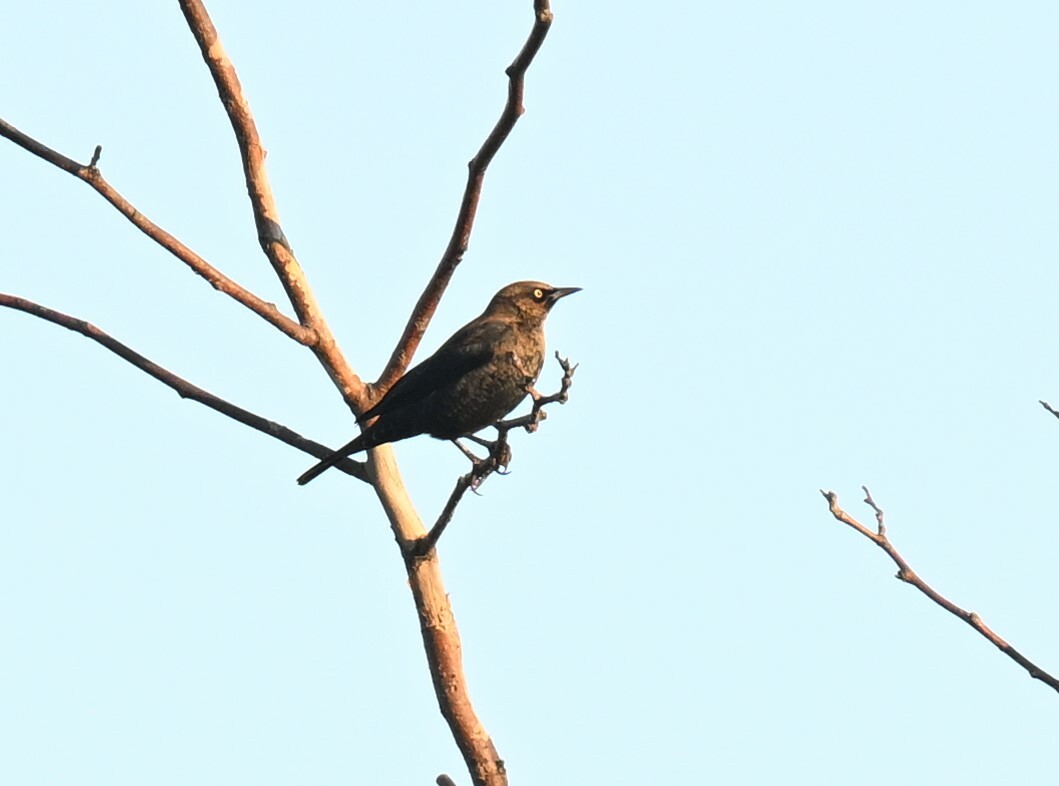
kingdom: Animalia
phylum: Chordata
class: Aves
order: Passeriformes
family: Icteridae
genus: Euphagus
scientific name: Euphagus carolinus
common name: Rusty blackbird
